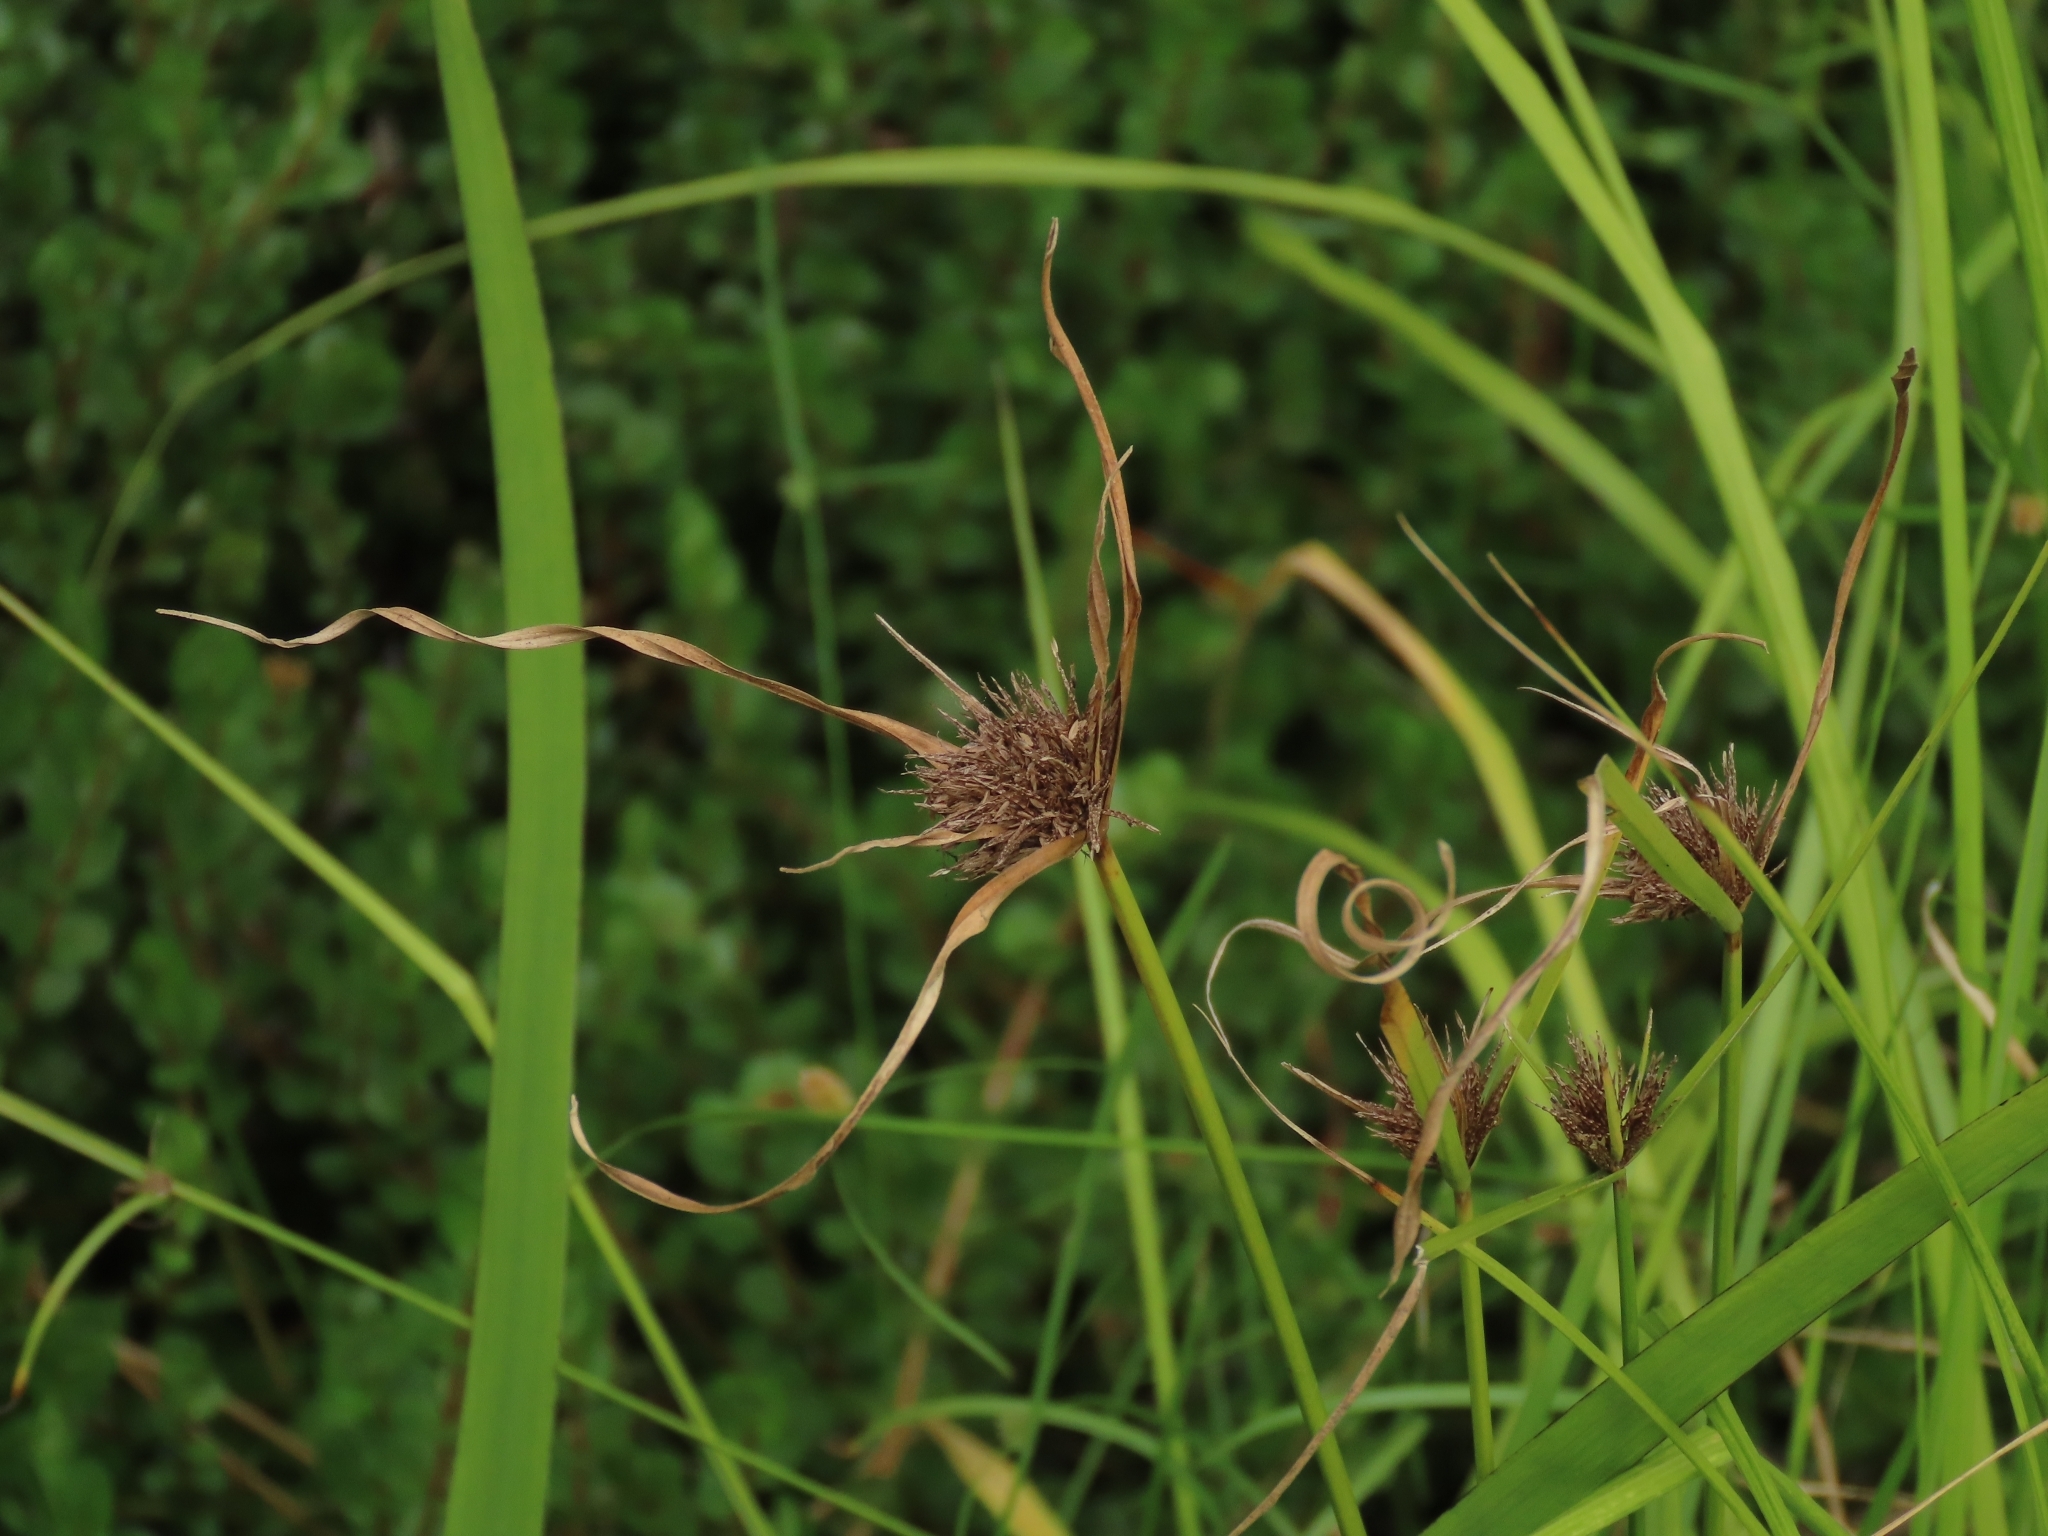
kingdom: Plantae
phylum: Tracheophyta
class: Liliopsida
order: Poales
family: Cyperaceae
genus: Cyperus
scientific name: Cyperus polystachyos
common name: Bunchy flat sedge
